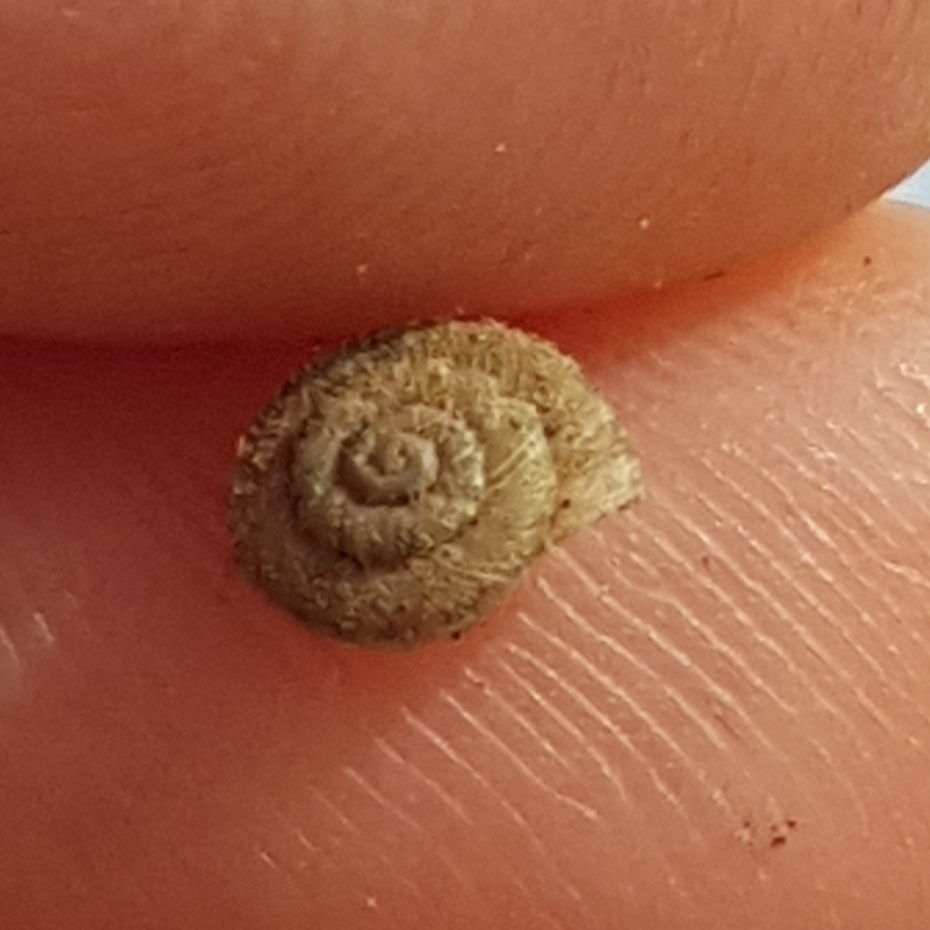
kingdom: Animalia
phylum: Mollusca
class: Gastropoda
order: Stylommatophora
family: Geomitridae
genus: Xerotricha
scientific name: Xerotricha conspurcata
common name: Snail
